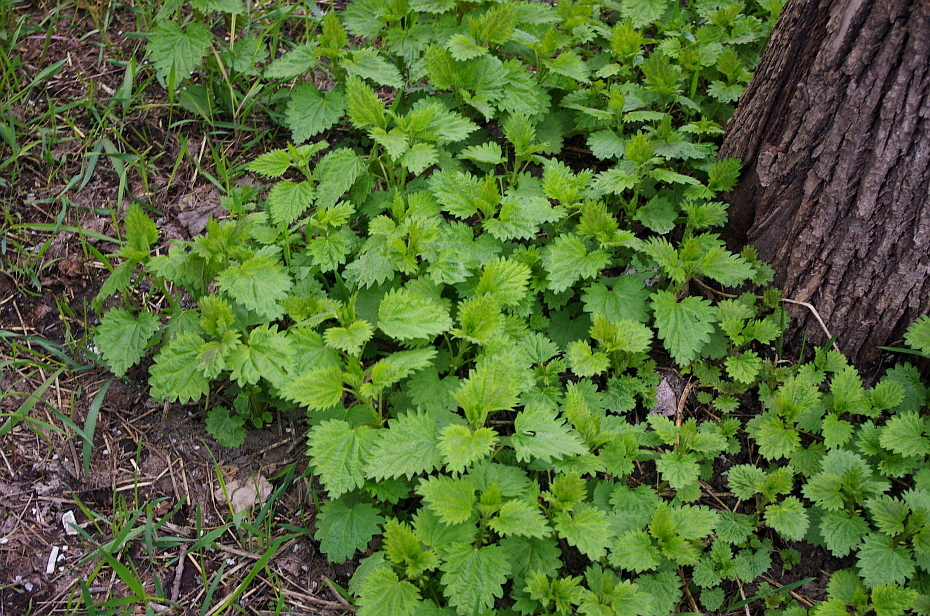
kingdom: Plantae
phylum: Tracheophyta
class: Magnoliopsida
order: Rosales
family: Urticaceae
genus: Urtica
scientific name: Urtica dioica
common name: Common nettle
